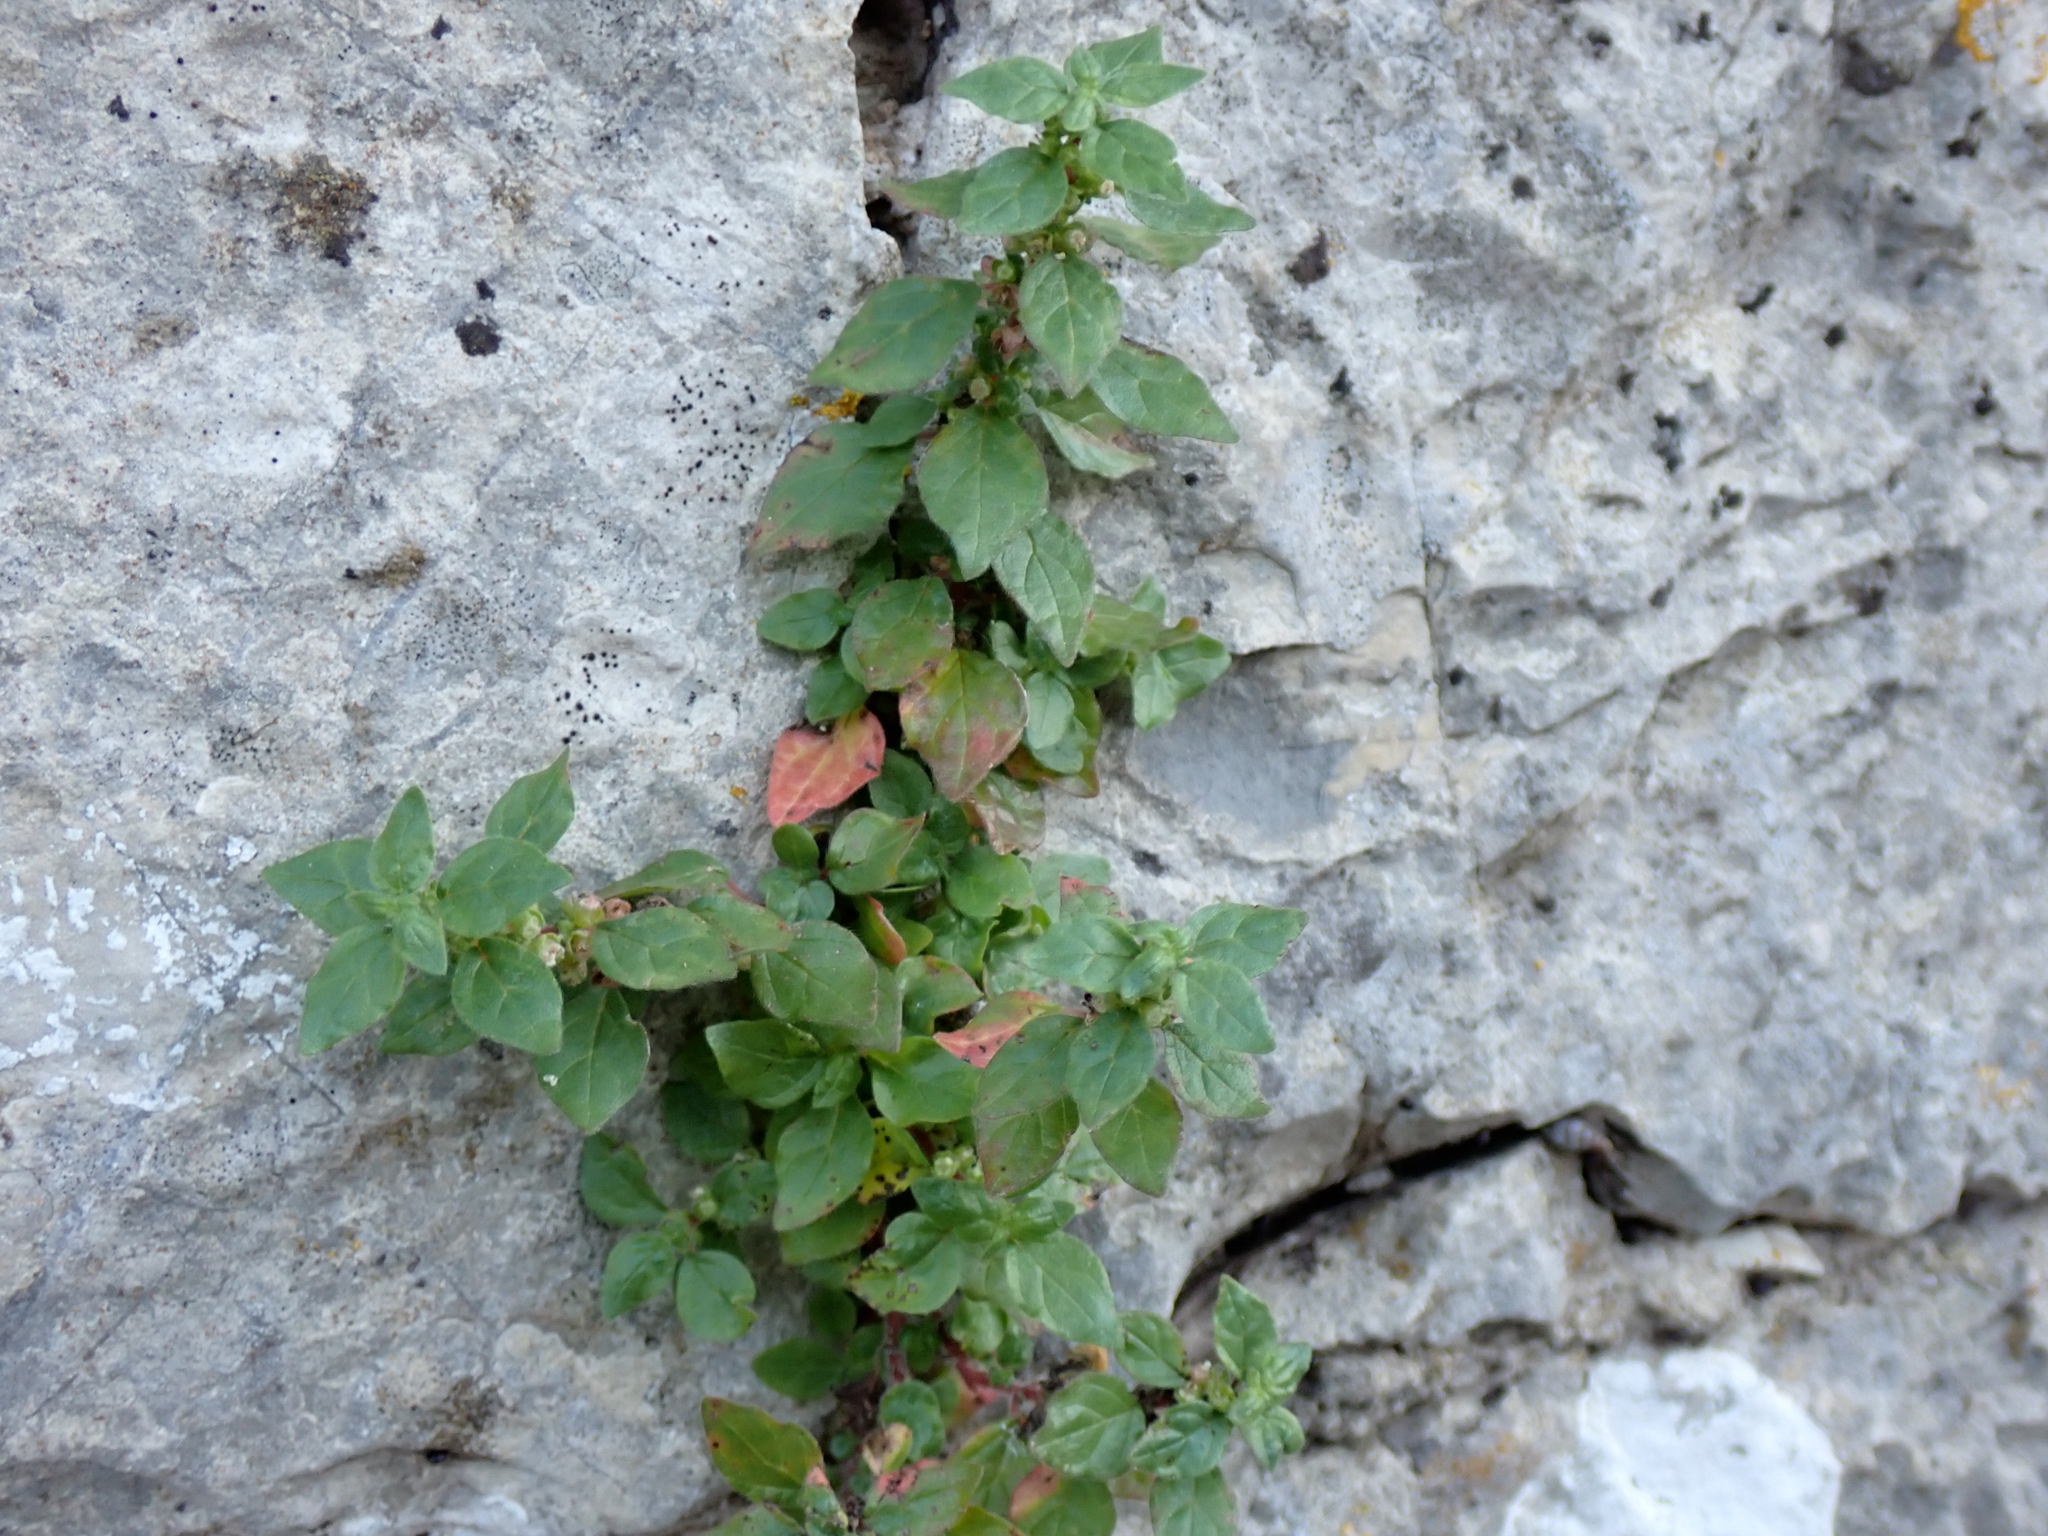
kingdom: Plantae
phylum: Tracheophyta
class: Magnoliopsida
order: Rosales
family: Urticaceae
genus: Parietaria
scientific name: Parietaria judaica
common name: Pellitory-of-the-wall
